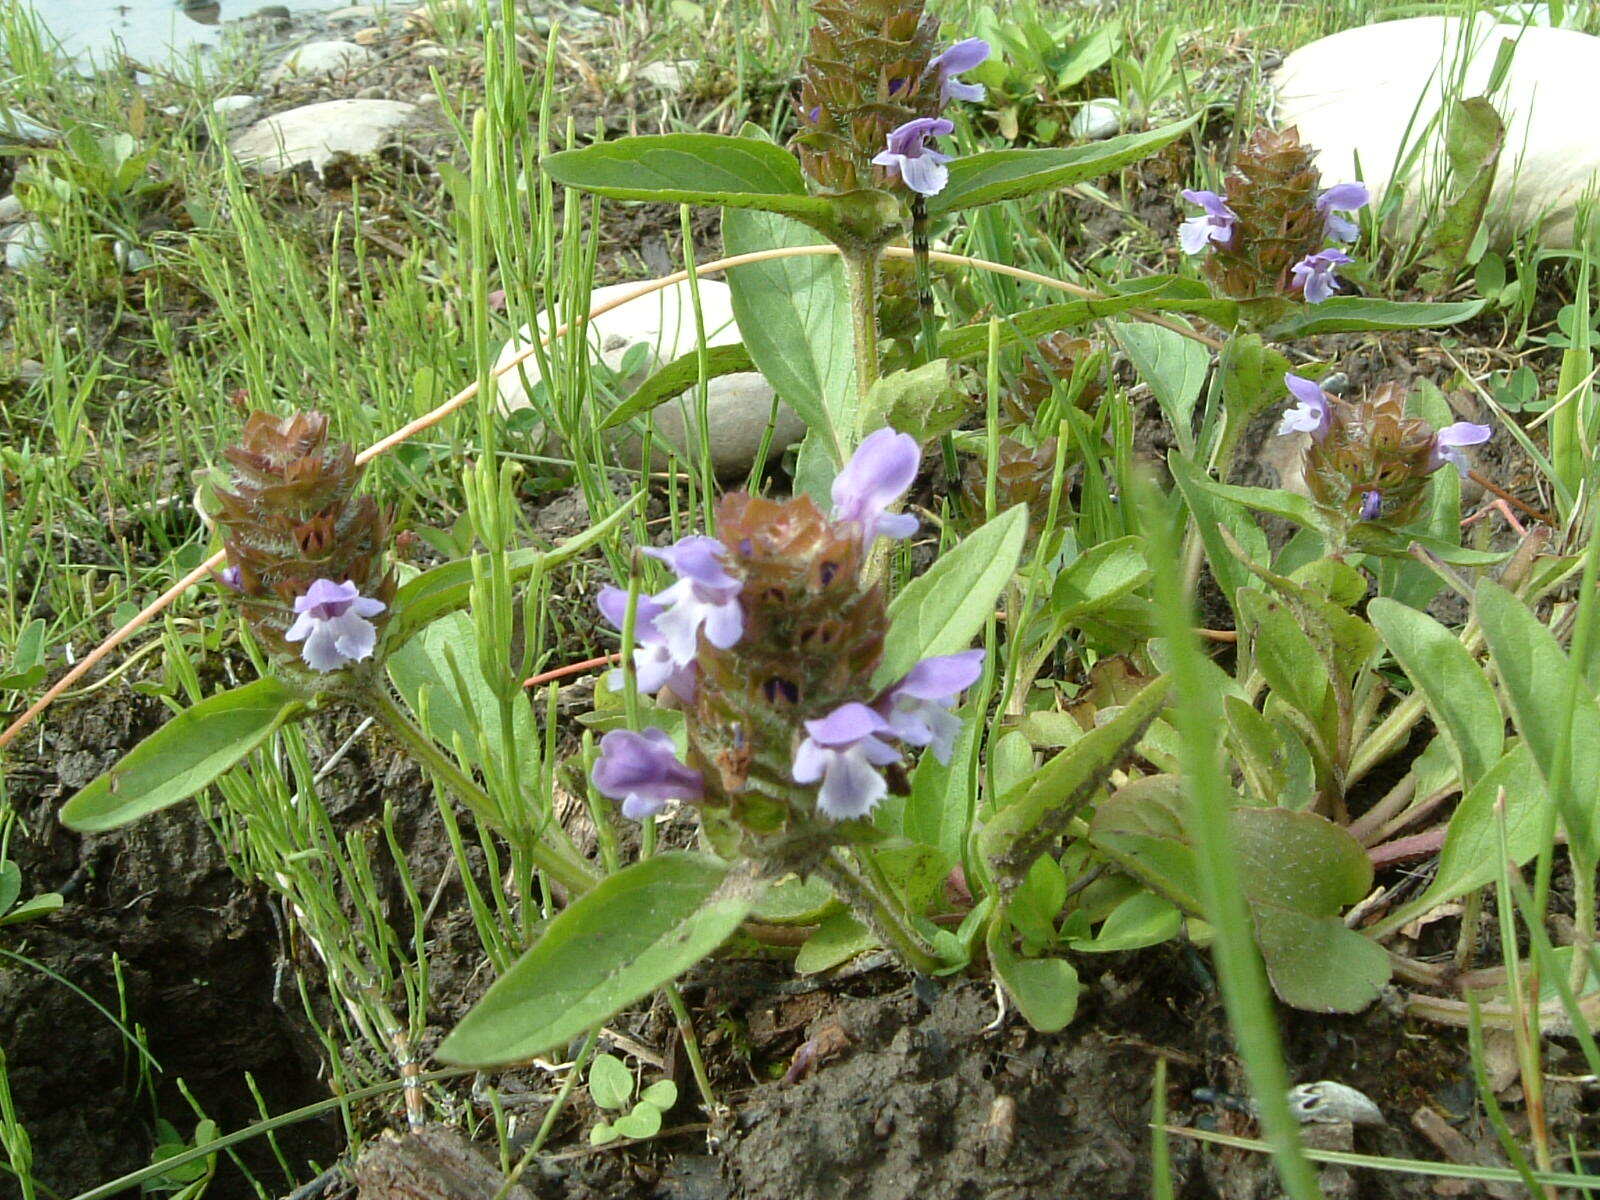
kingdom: Plantae
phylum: Tracheophyta
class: Magnoliopsida
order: Lamiales
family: Lamiaceae
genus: Prunella
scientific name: Prunella vulgaris
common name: Heal-all
